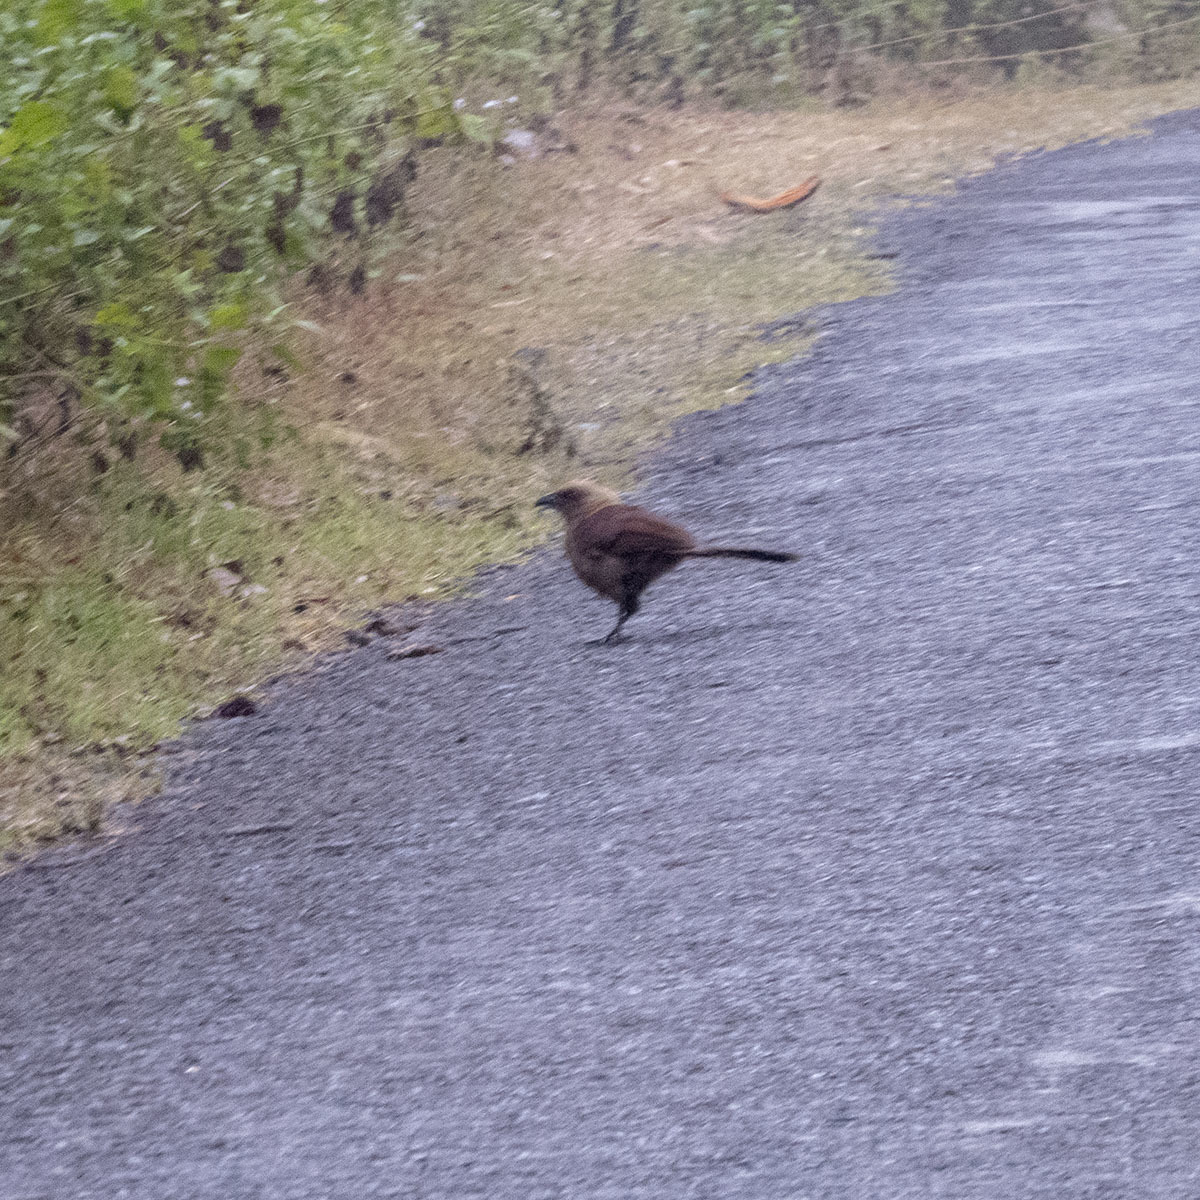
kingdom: Animalia
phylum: Chordata
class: Aves
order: Cuculiformes
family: Cuculidae
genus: Centropus
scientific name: Centropus andamanensis
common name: Andaman coucal
